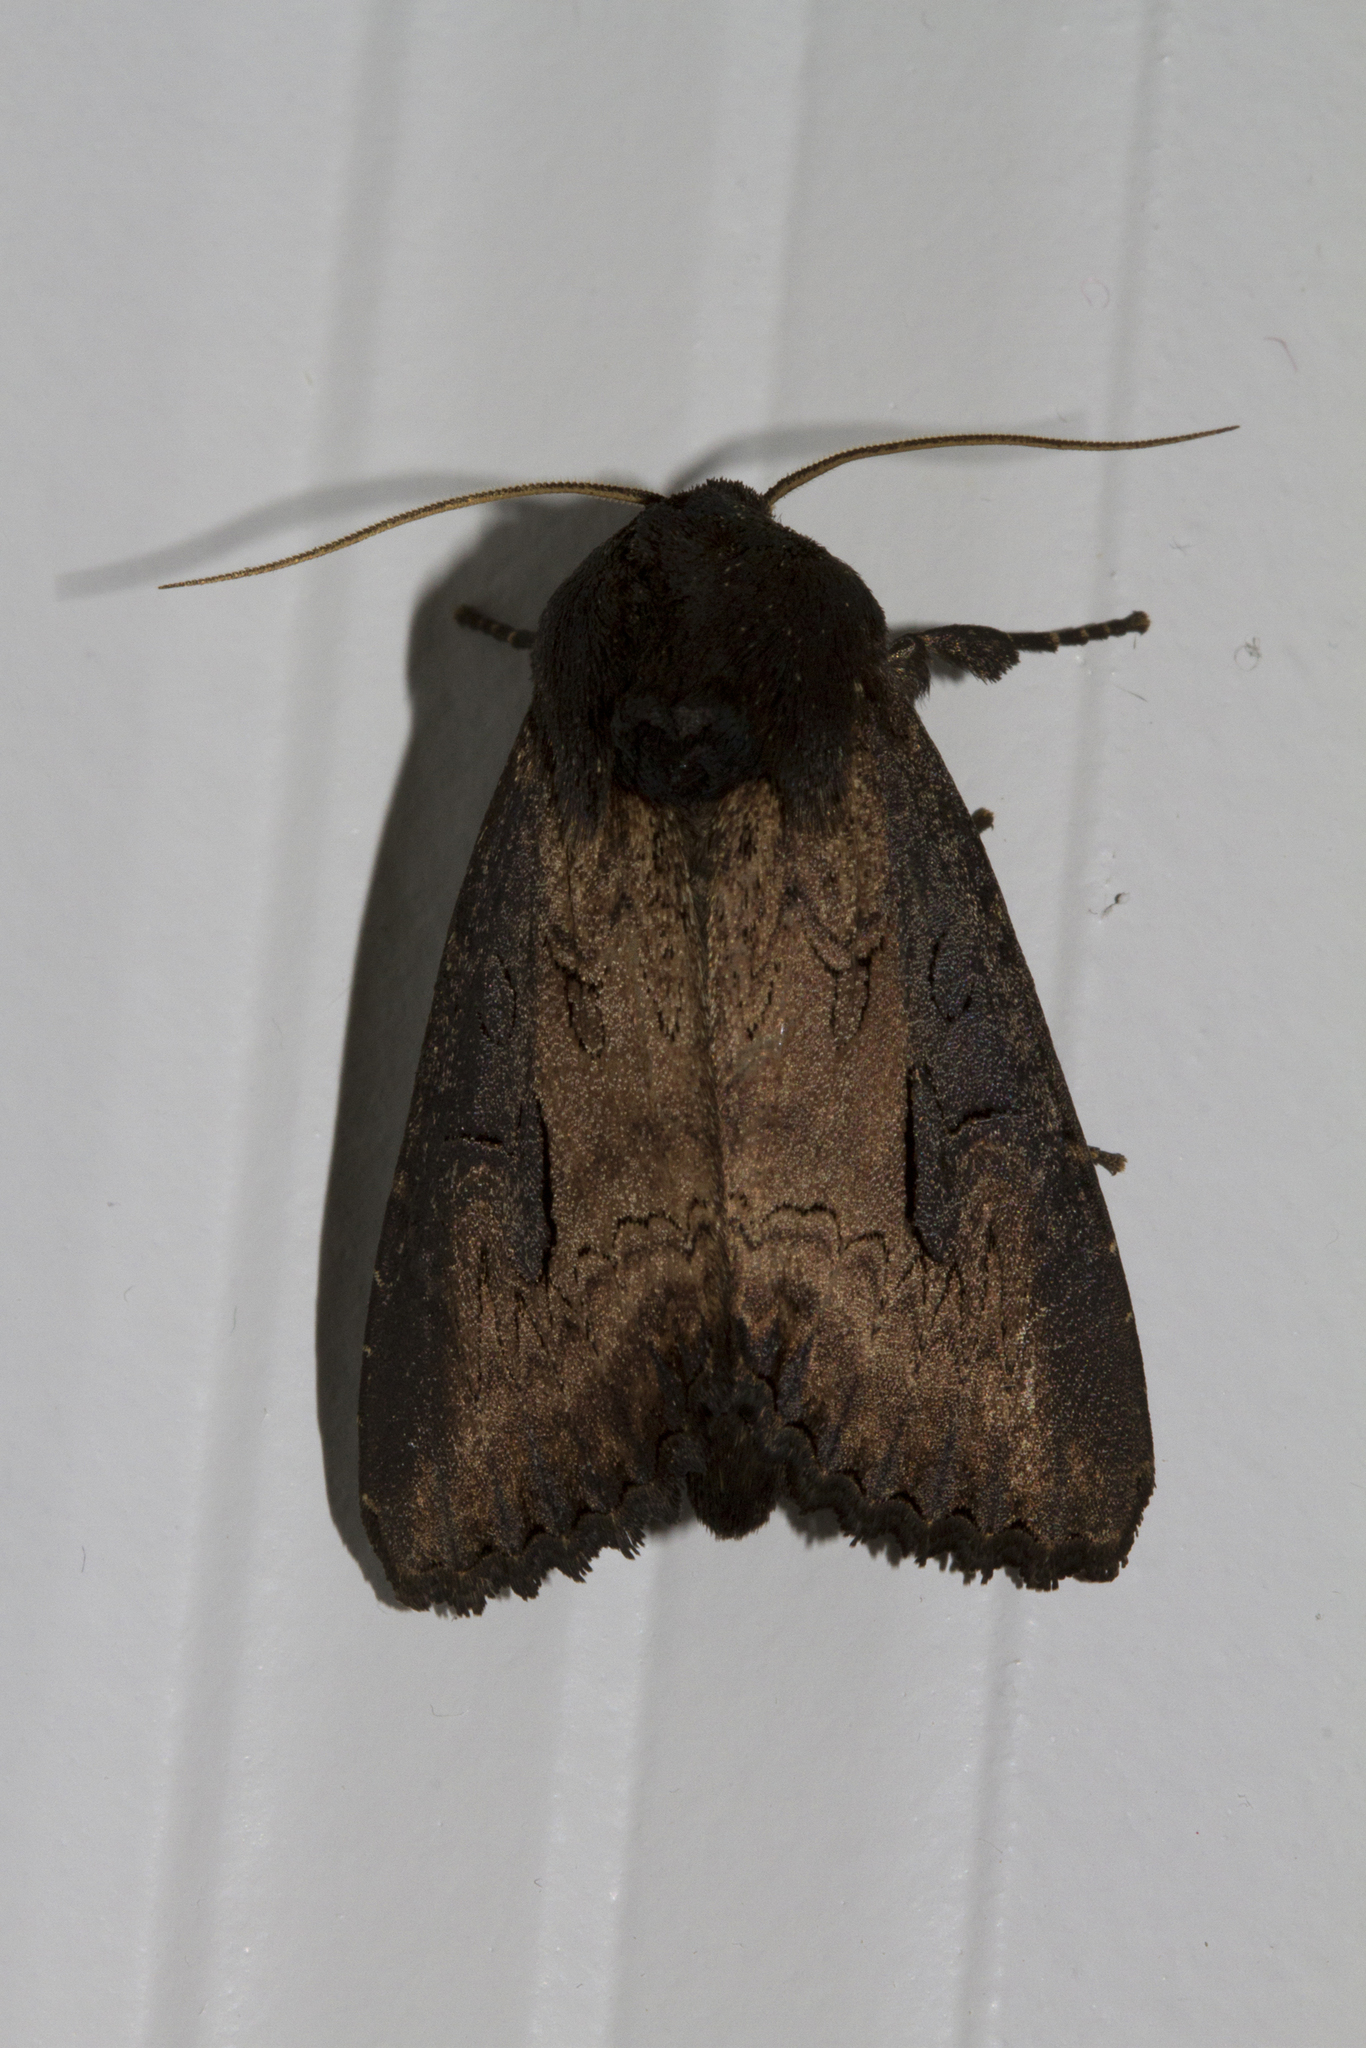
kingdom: Animalia
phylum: Arthropoda
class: Insecta
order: Lepidoptera
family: Noctuidae
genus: Macronoctua
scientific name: Macronoctua onusta
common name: Iris borer
